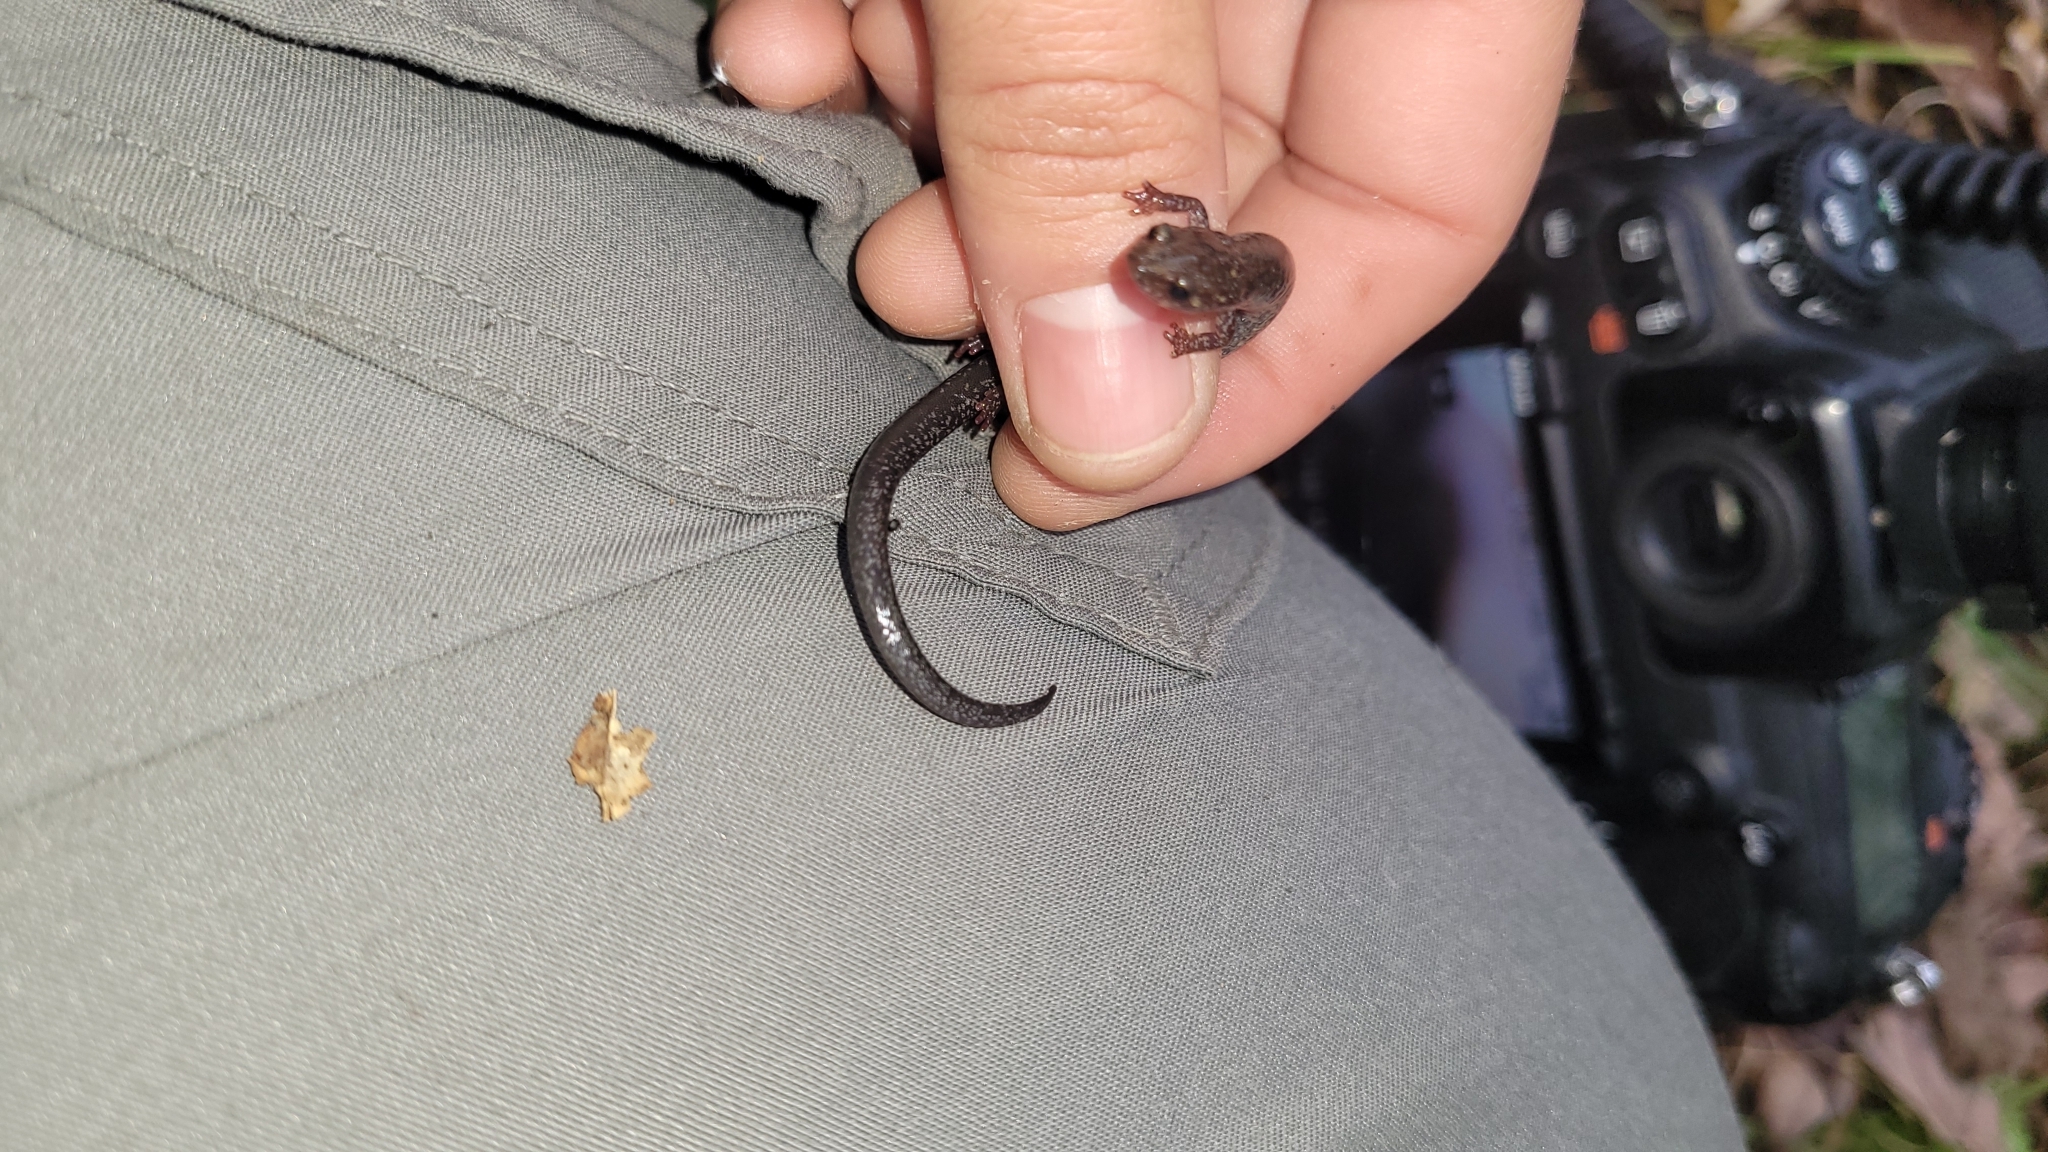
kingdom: Animalia
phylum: Chordata
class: Amphibia
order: Caudata
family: Plethodontidae
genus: Plethodon
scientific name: Plethodon hoffmani
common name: Valley and ridge salamander
